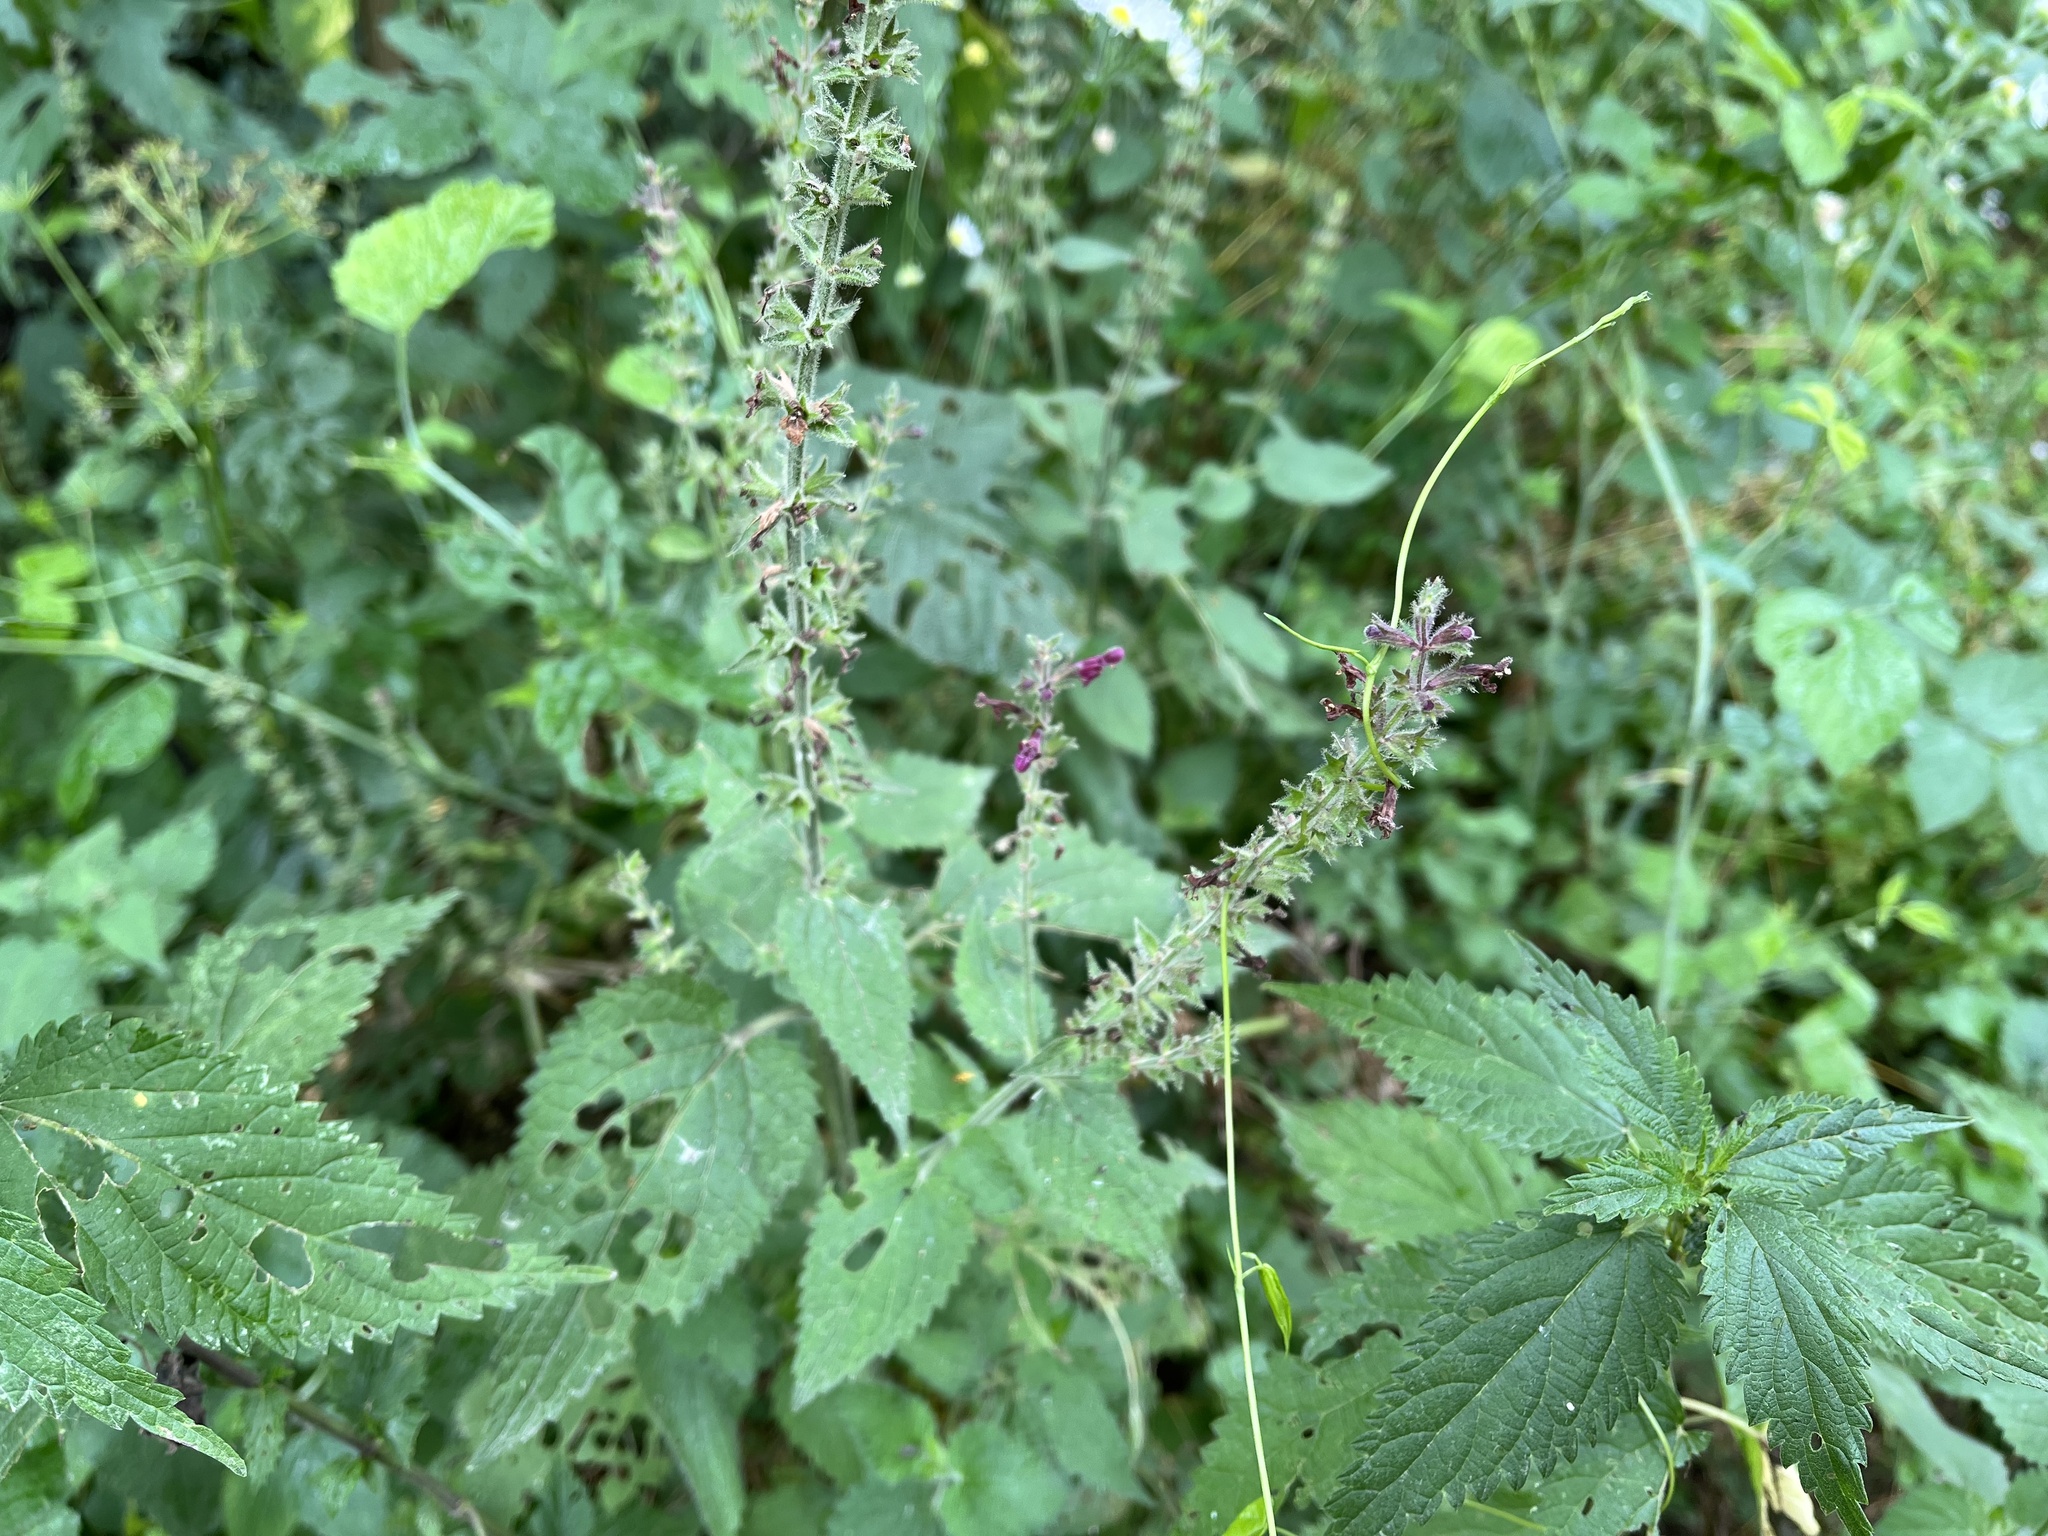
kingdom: Plantae
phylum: Tracheophyta
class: Magnoliopsida
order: Lamiales
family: Lamiaceae
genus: Stachys
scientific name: Stachys sylvatica
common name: Hedge woundwort
